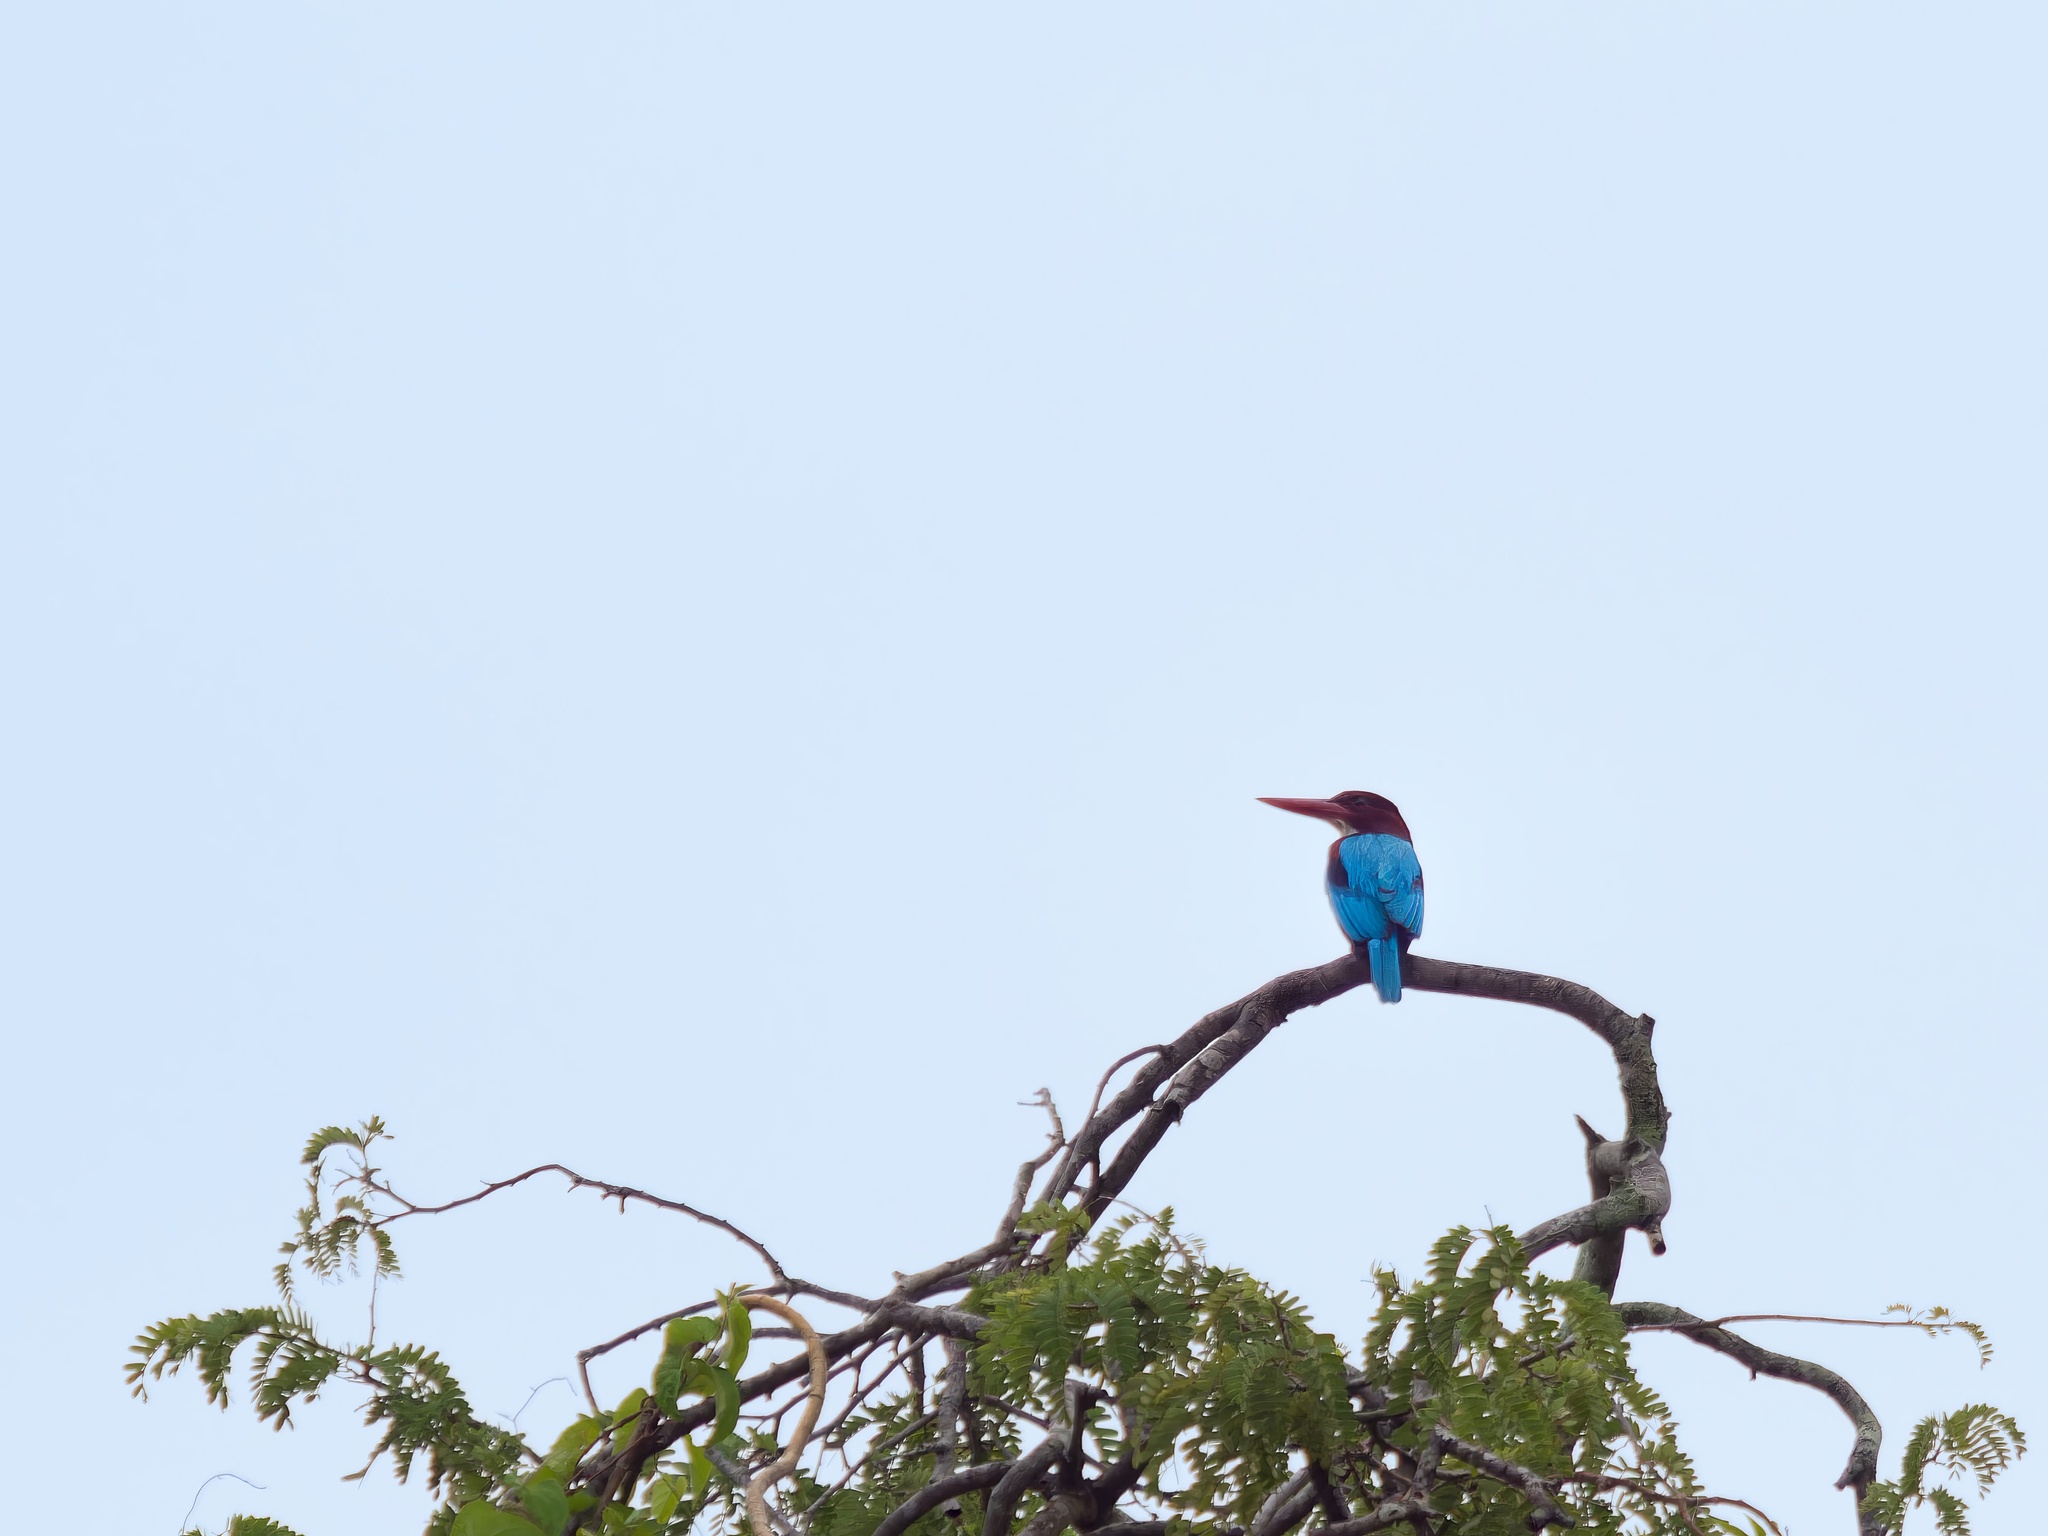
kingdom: Animalia
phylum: Chordata
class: Aves
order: Coraciiformes
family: Alcedinidae
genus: Halcyon
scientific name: Halcyon smyrnensis
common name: White-throated kingfisher
